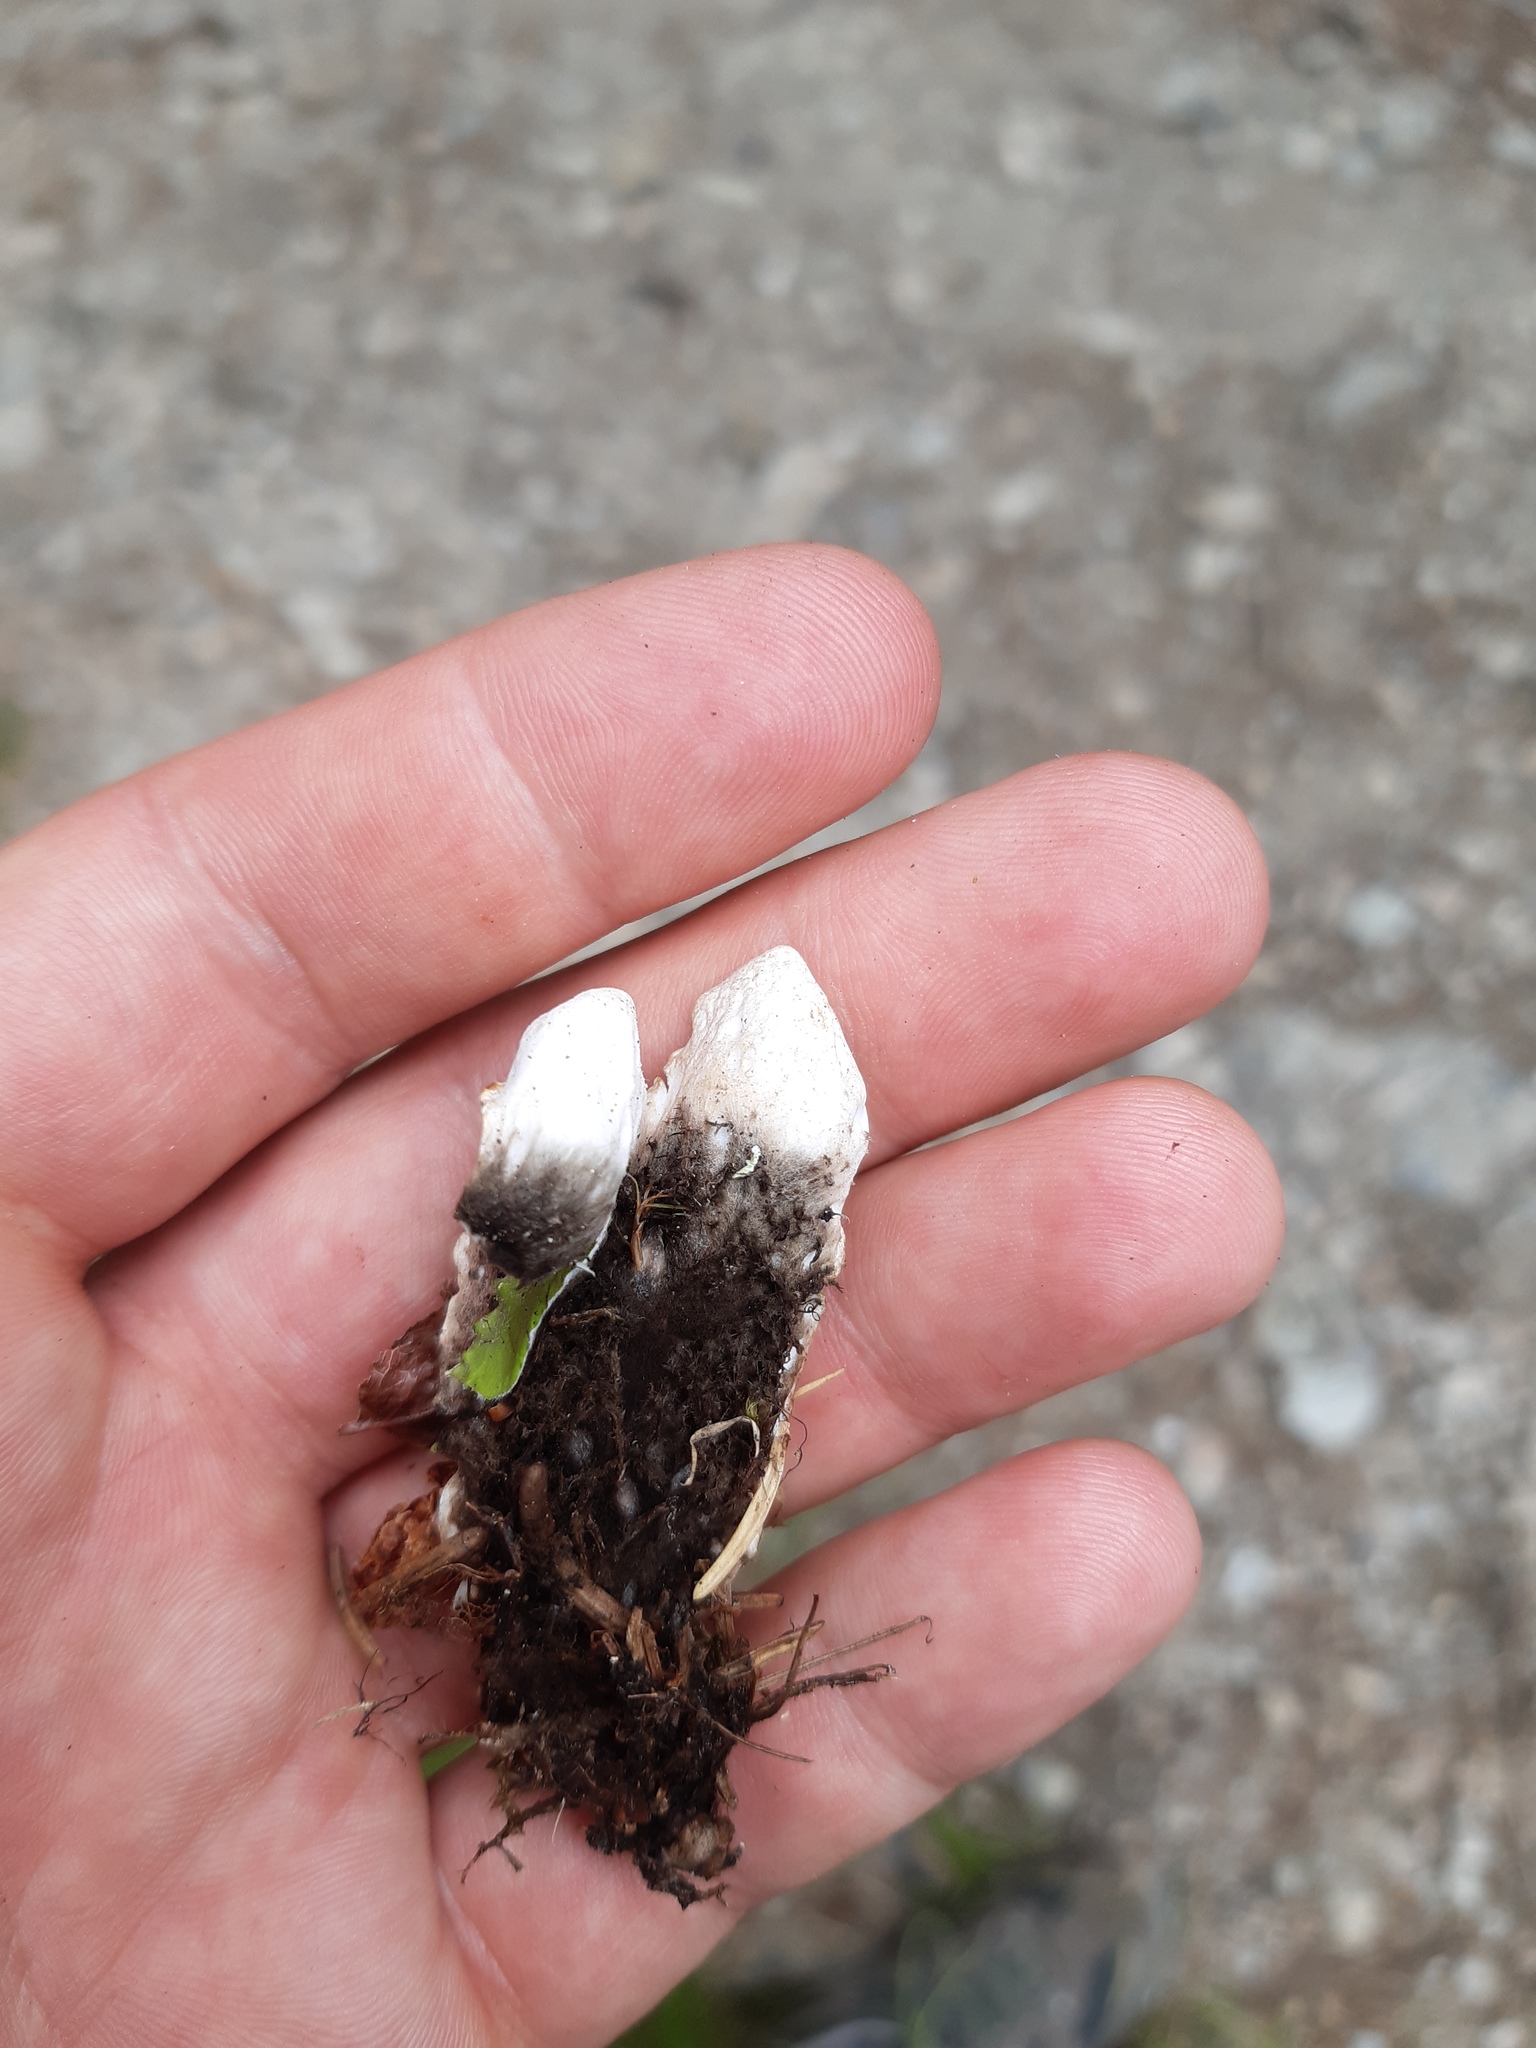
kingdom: Fungi
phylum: Ascomycota
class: Lecanoromycetes
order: Peltigerales
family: Peltigeraceae
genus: Peltigera
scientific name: Peltigera aphthosa
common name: Common freckle pelt lichen
